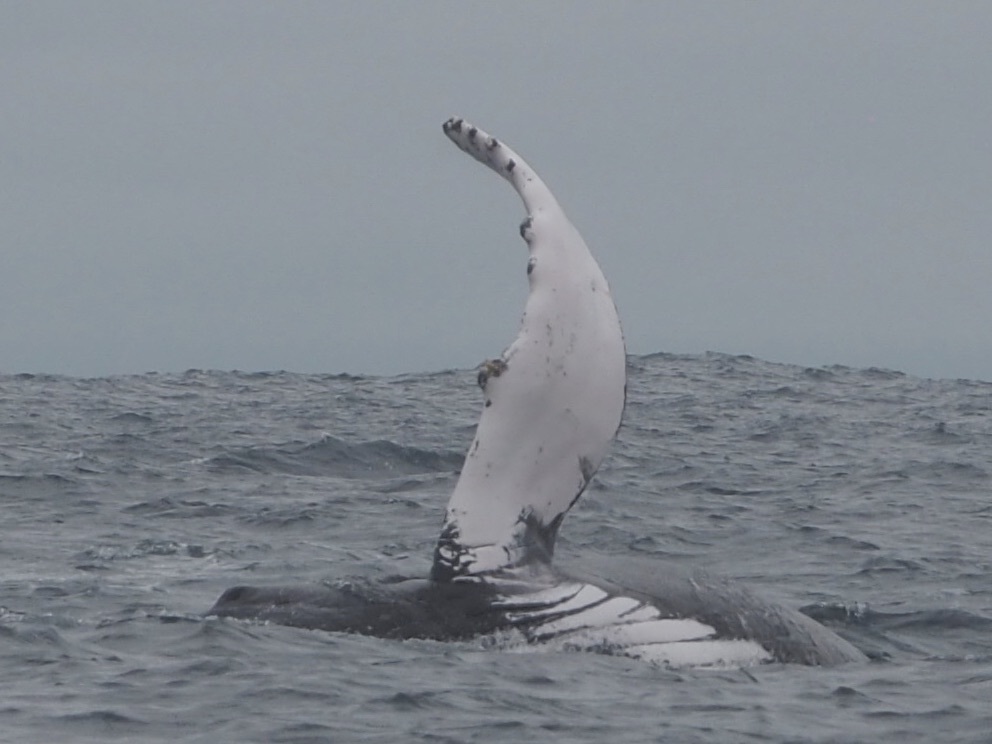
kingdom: Animalia
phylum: Chordata
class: Mammalia
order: Cetacea
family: Balaenopteridae
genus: Megaptera
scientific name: Megaptera novaeangliae
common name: Humpback whale
